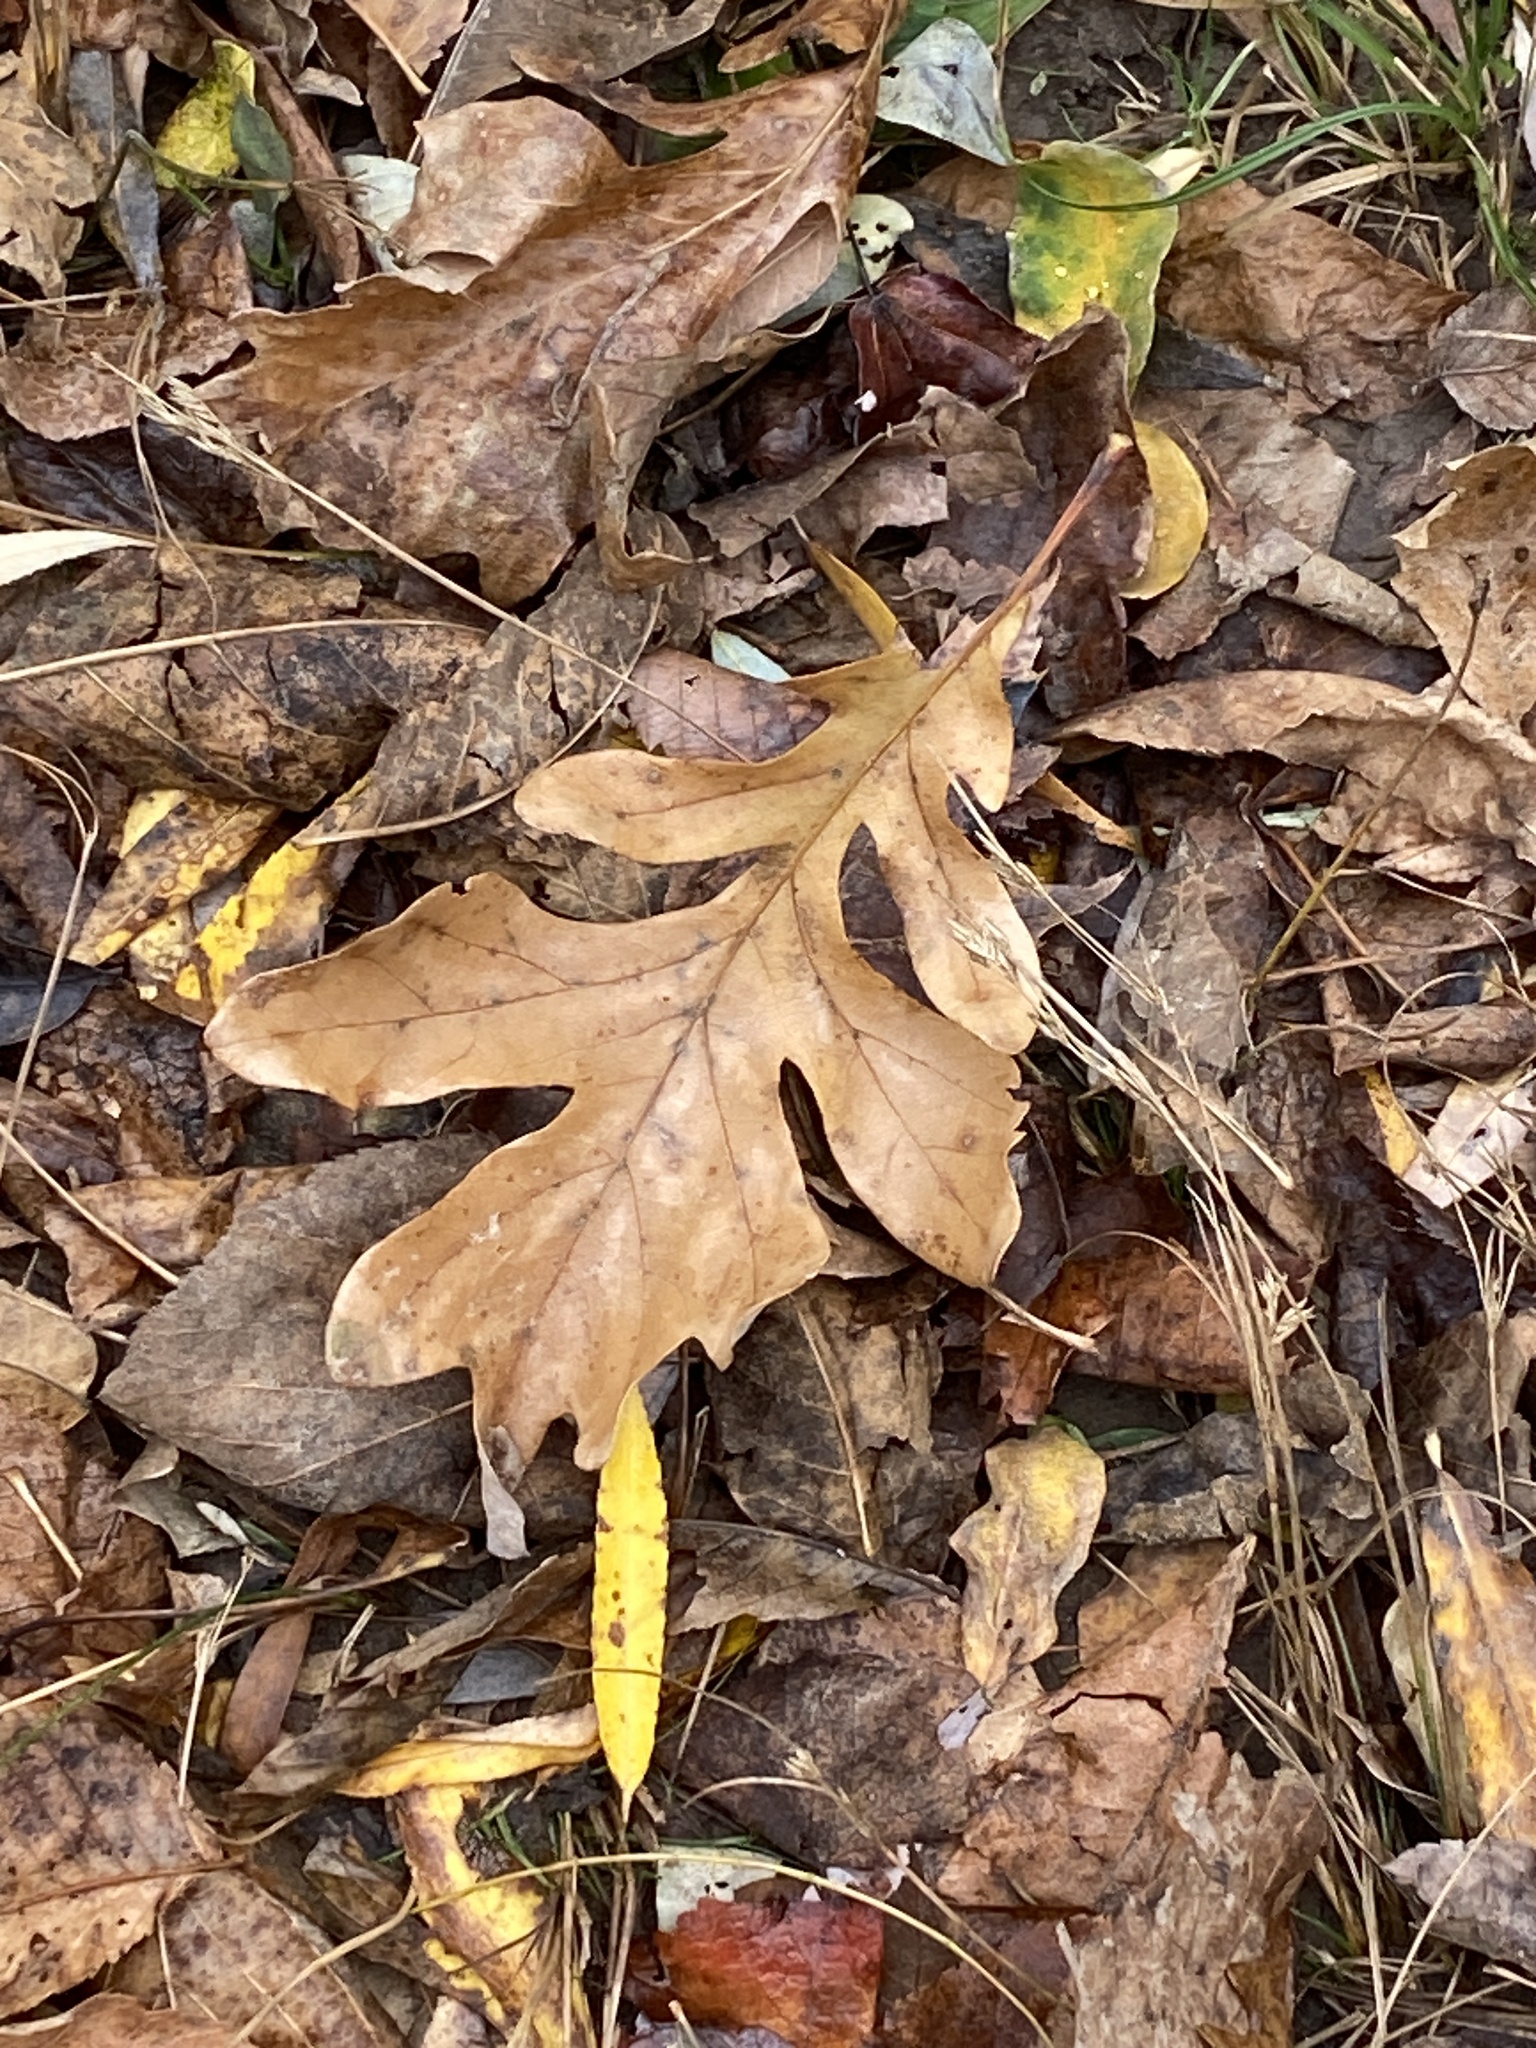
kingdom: Plantae
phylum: Tracheophyta
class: Magnoliopsida
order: Fagales
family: Fagaceae
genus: Quercus
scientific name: Quercus alba
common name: White oak
